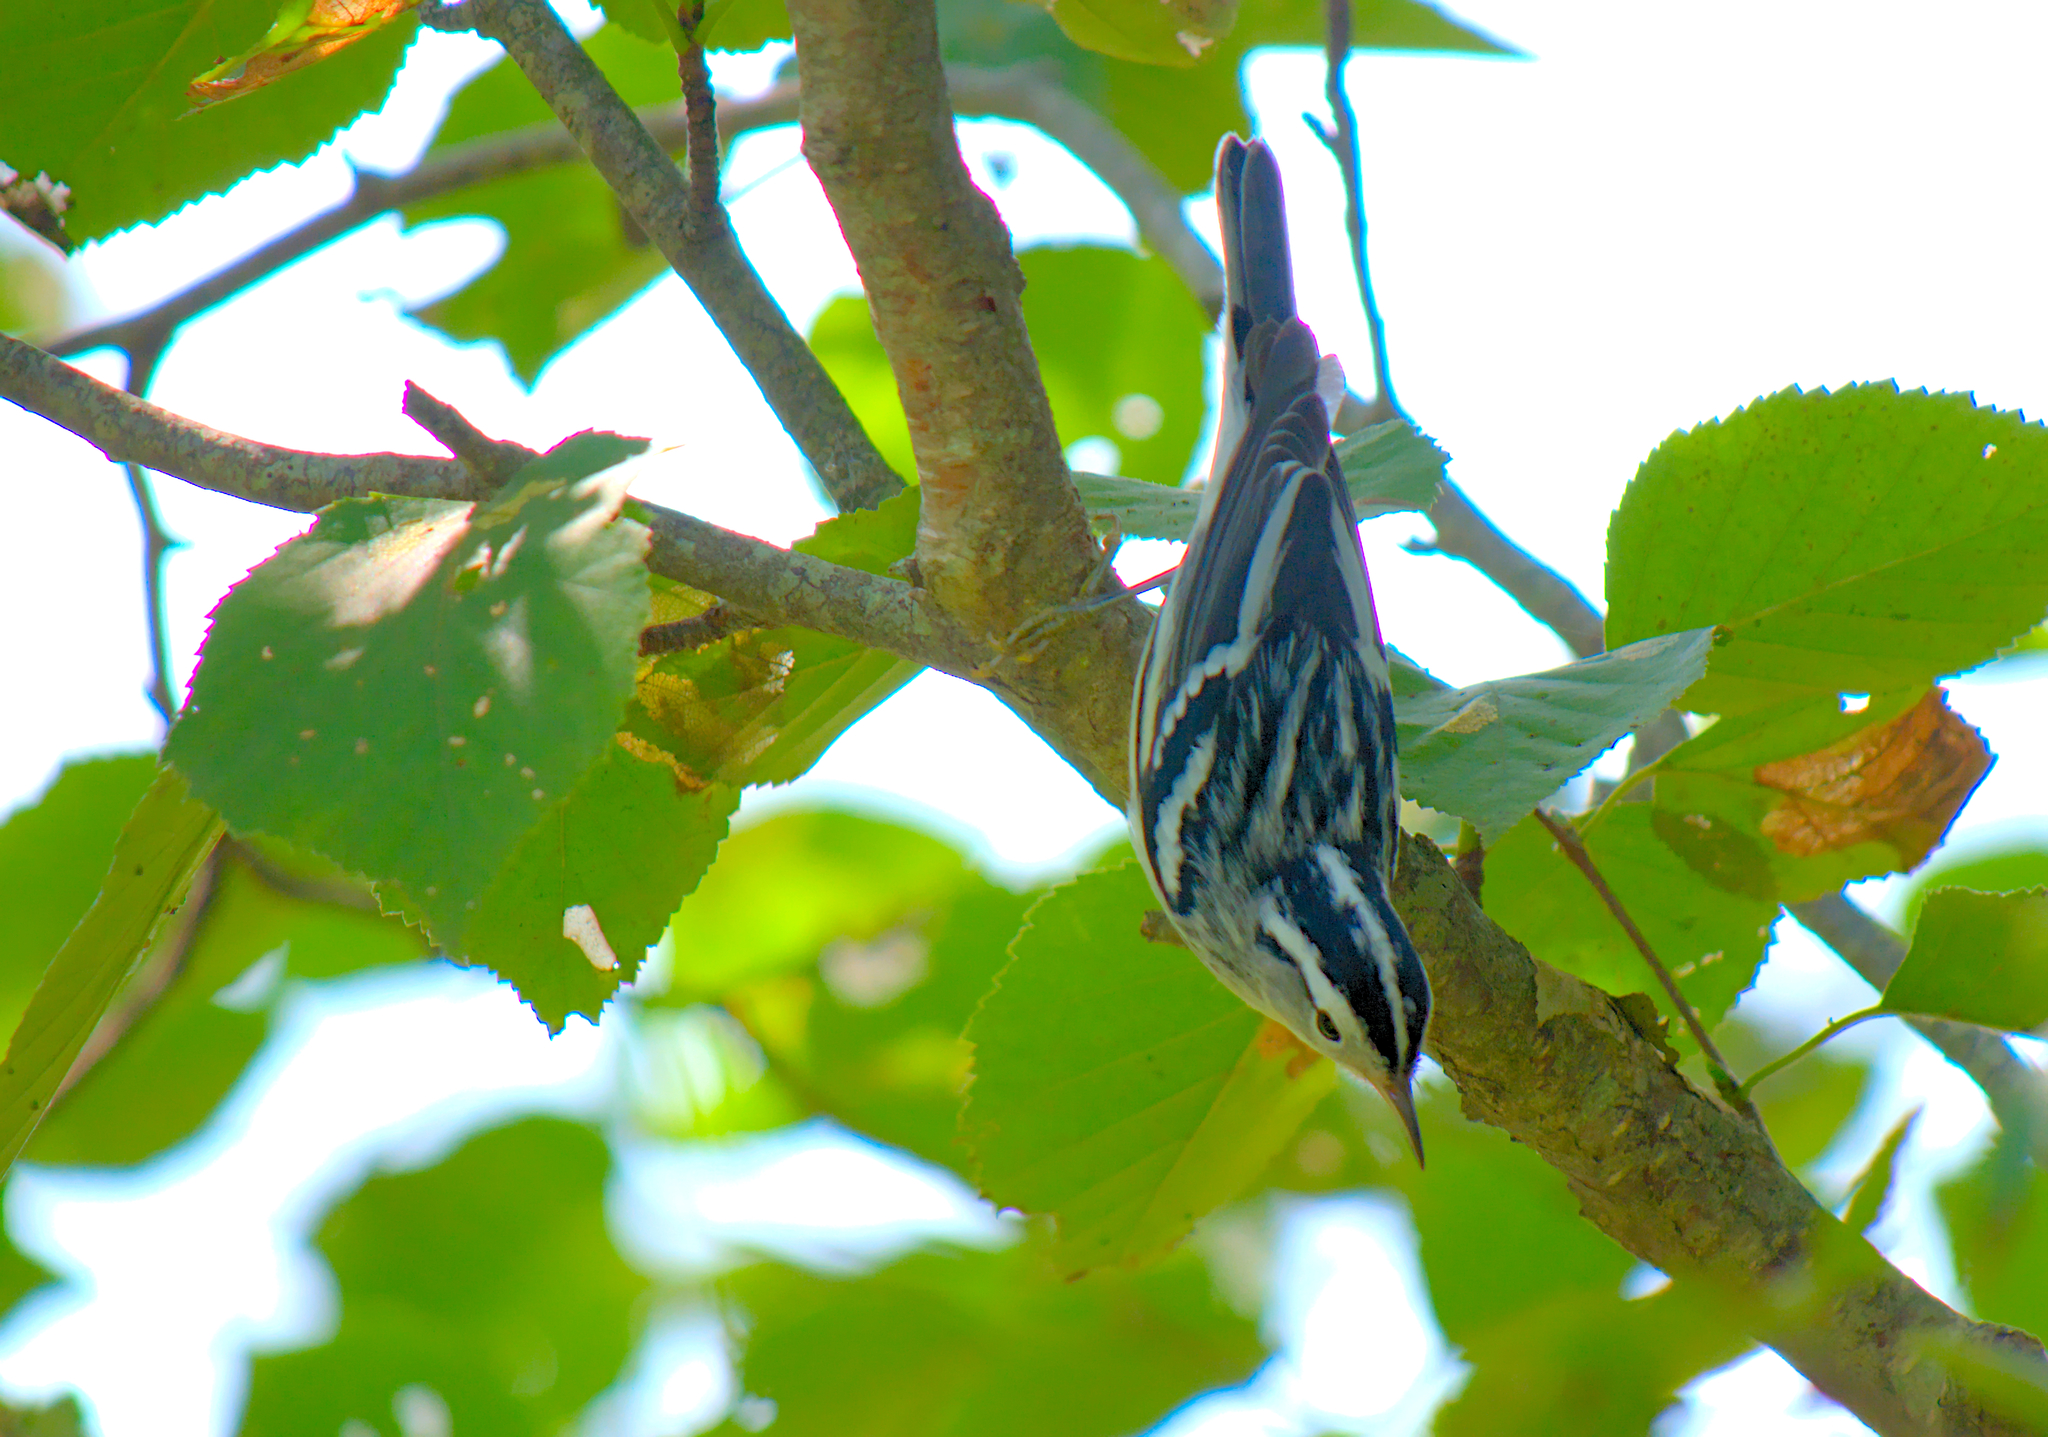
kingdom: Animalia
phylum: Chordata
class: Aves
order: Passeriformes
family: Parulidae
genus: Mniotilta
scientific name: Mniotilta varia
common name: Black-and-white warbler
